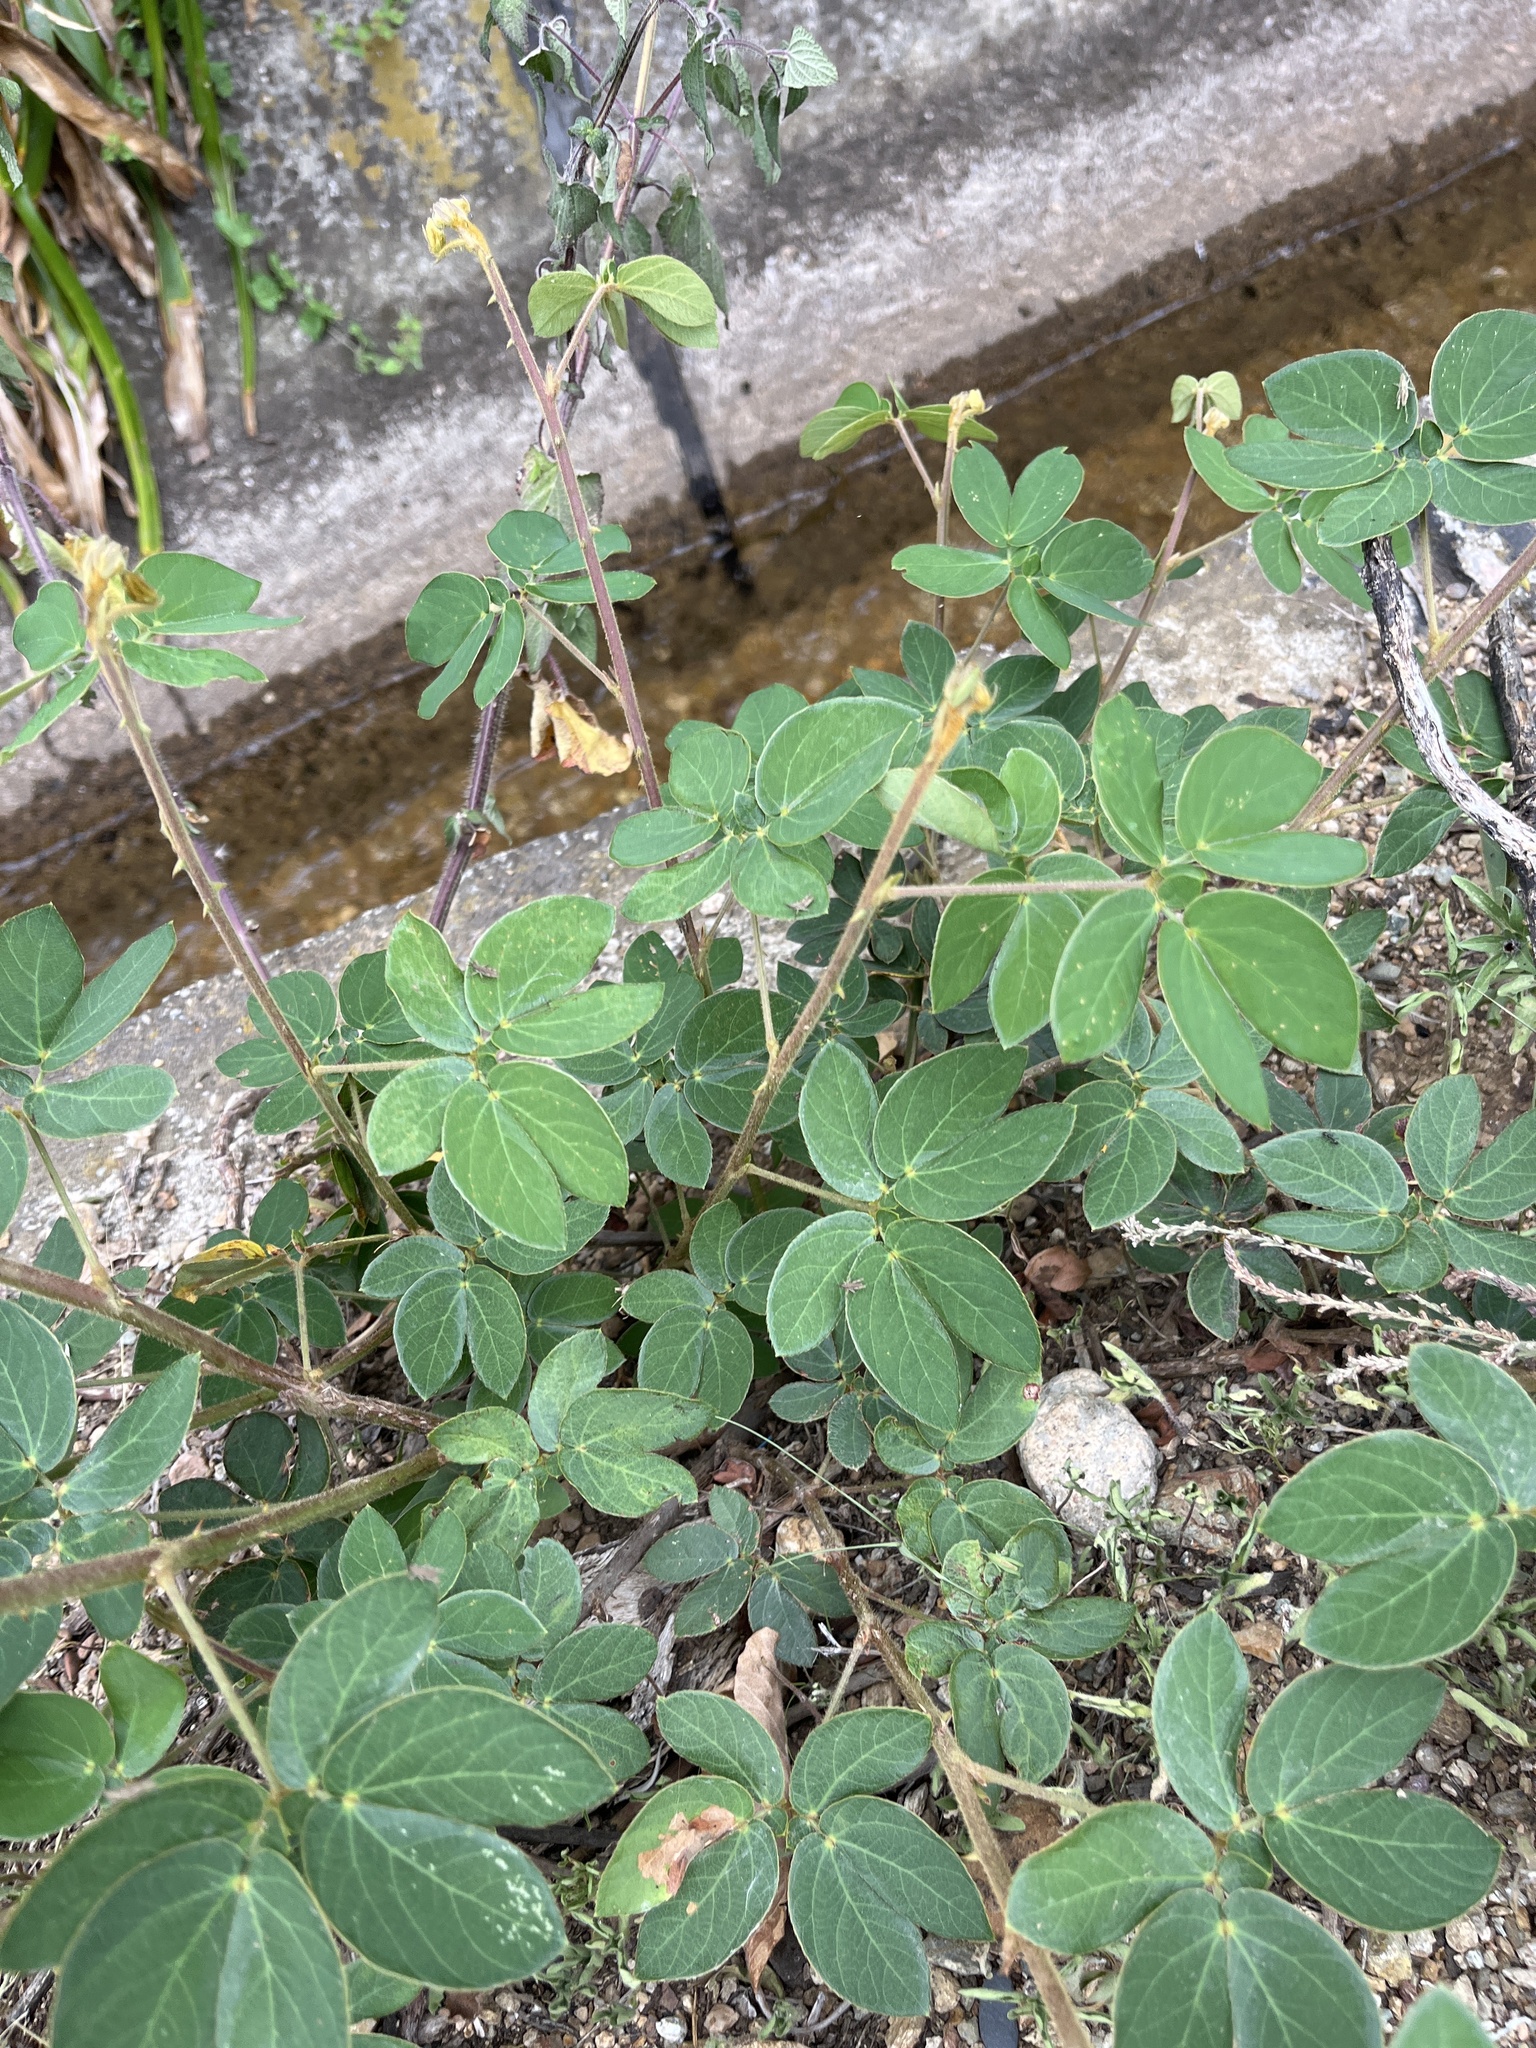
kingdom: Plantae
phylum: Tracheophyta
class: Magnoliopsida
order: Fabales
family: Fabaceae
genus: Mimosa
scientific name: Mimosa albida
